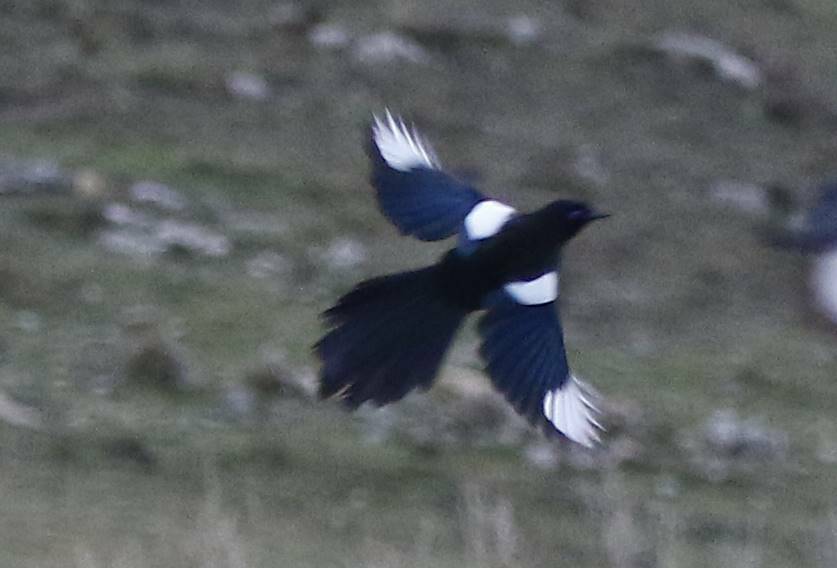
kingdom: Animalia
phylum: Chordata
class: Aves
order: Passeriformes
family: Corvidae
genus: Pica
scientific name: Pica mauritanica
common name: Maghreb magpie
